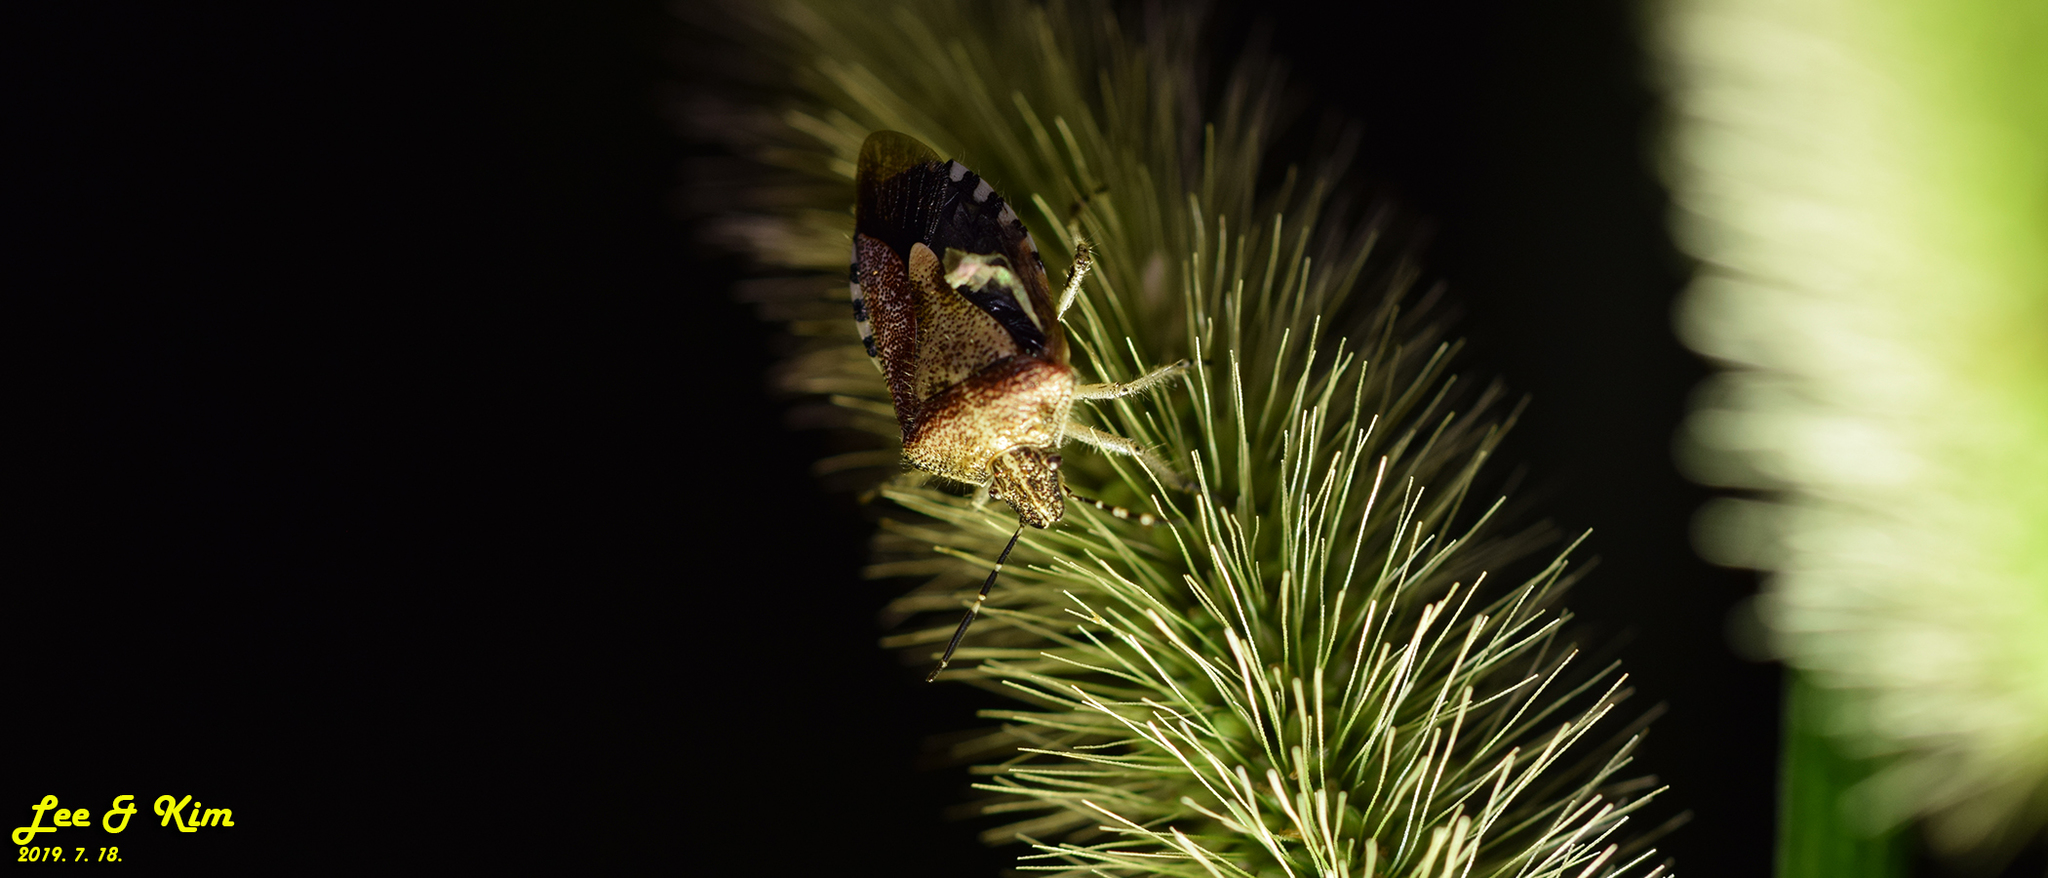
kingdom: Animalia
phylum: Arthropoda
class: Insecta
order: Hemiptera
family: Pentatomidae
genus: Dolycoris
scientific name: Dolycoris baccarum
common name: Sloe bug
